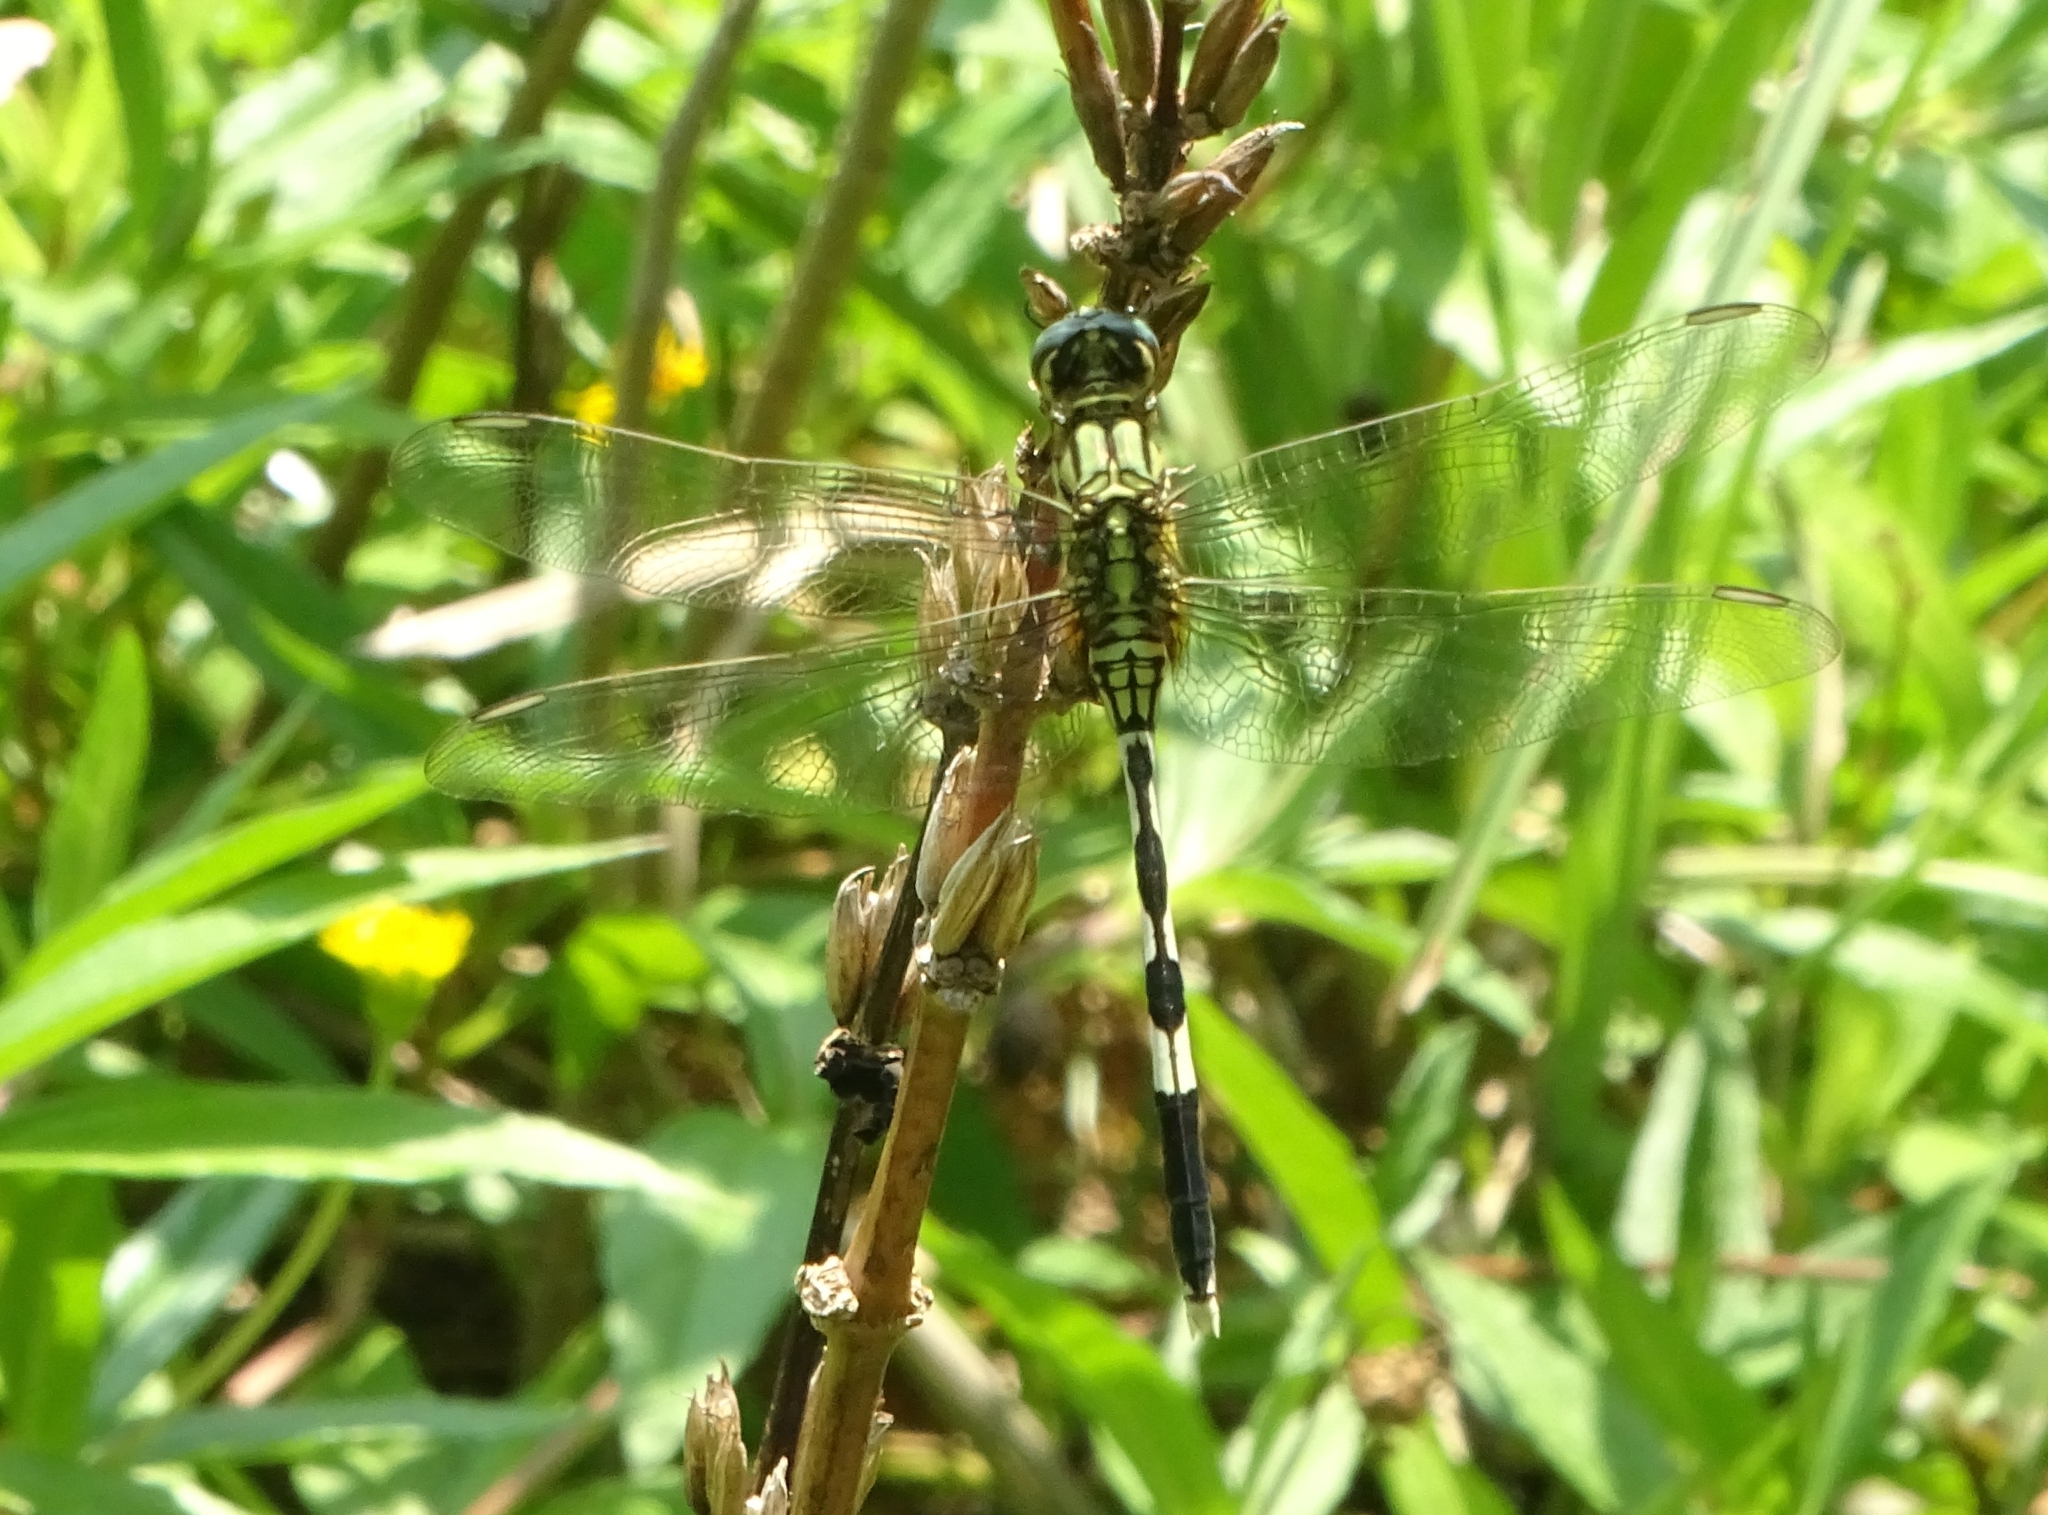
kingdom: Animalia
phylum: Arthropoda
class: Insecta
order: Odonata
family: Libellulidae
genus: Orthetrum
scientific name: Orthetrum sabina
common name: Slender skimmer
